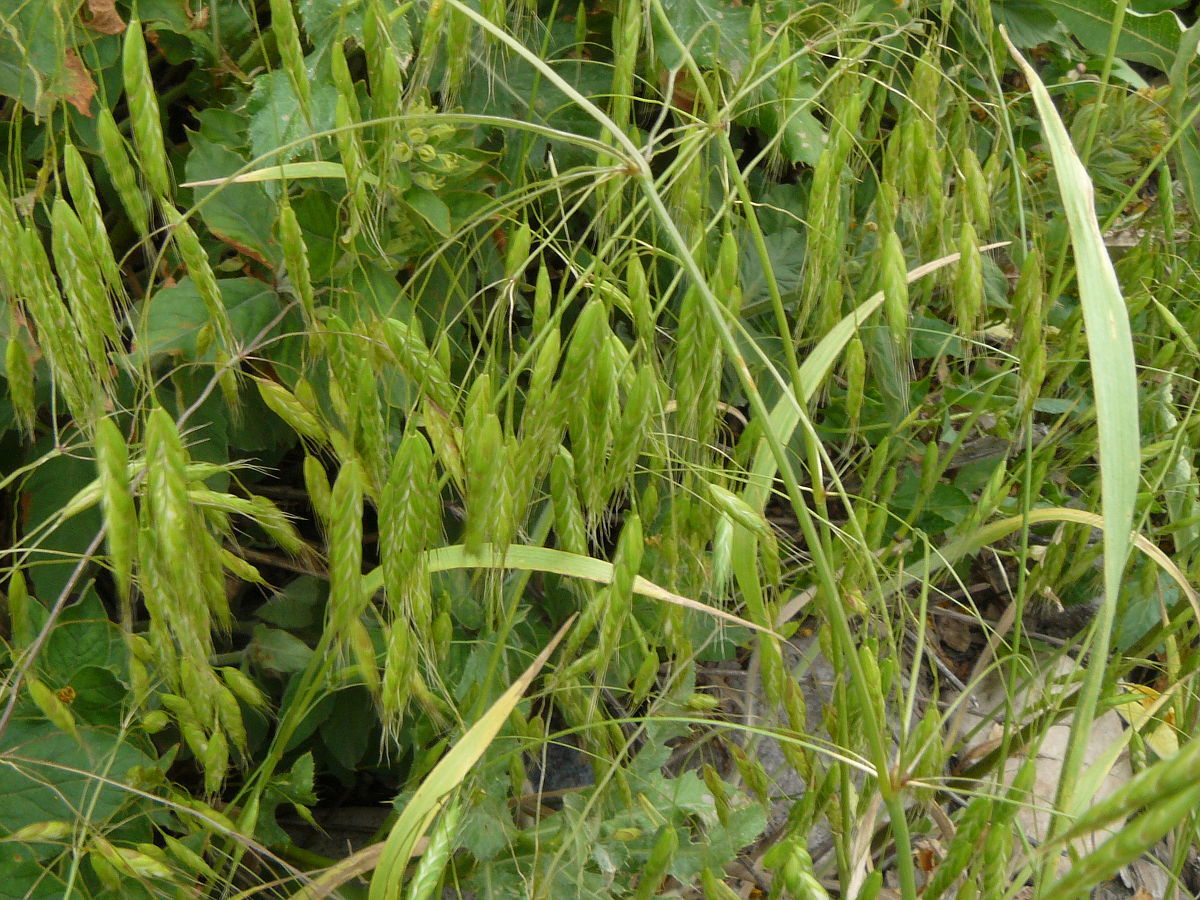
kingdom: Plantae
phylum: Tracheophyta
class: Liliopsida
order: Poales
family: Poaceae
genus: Bromus
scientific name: Bromus japonicus
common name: Japanese brome
